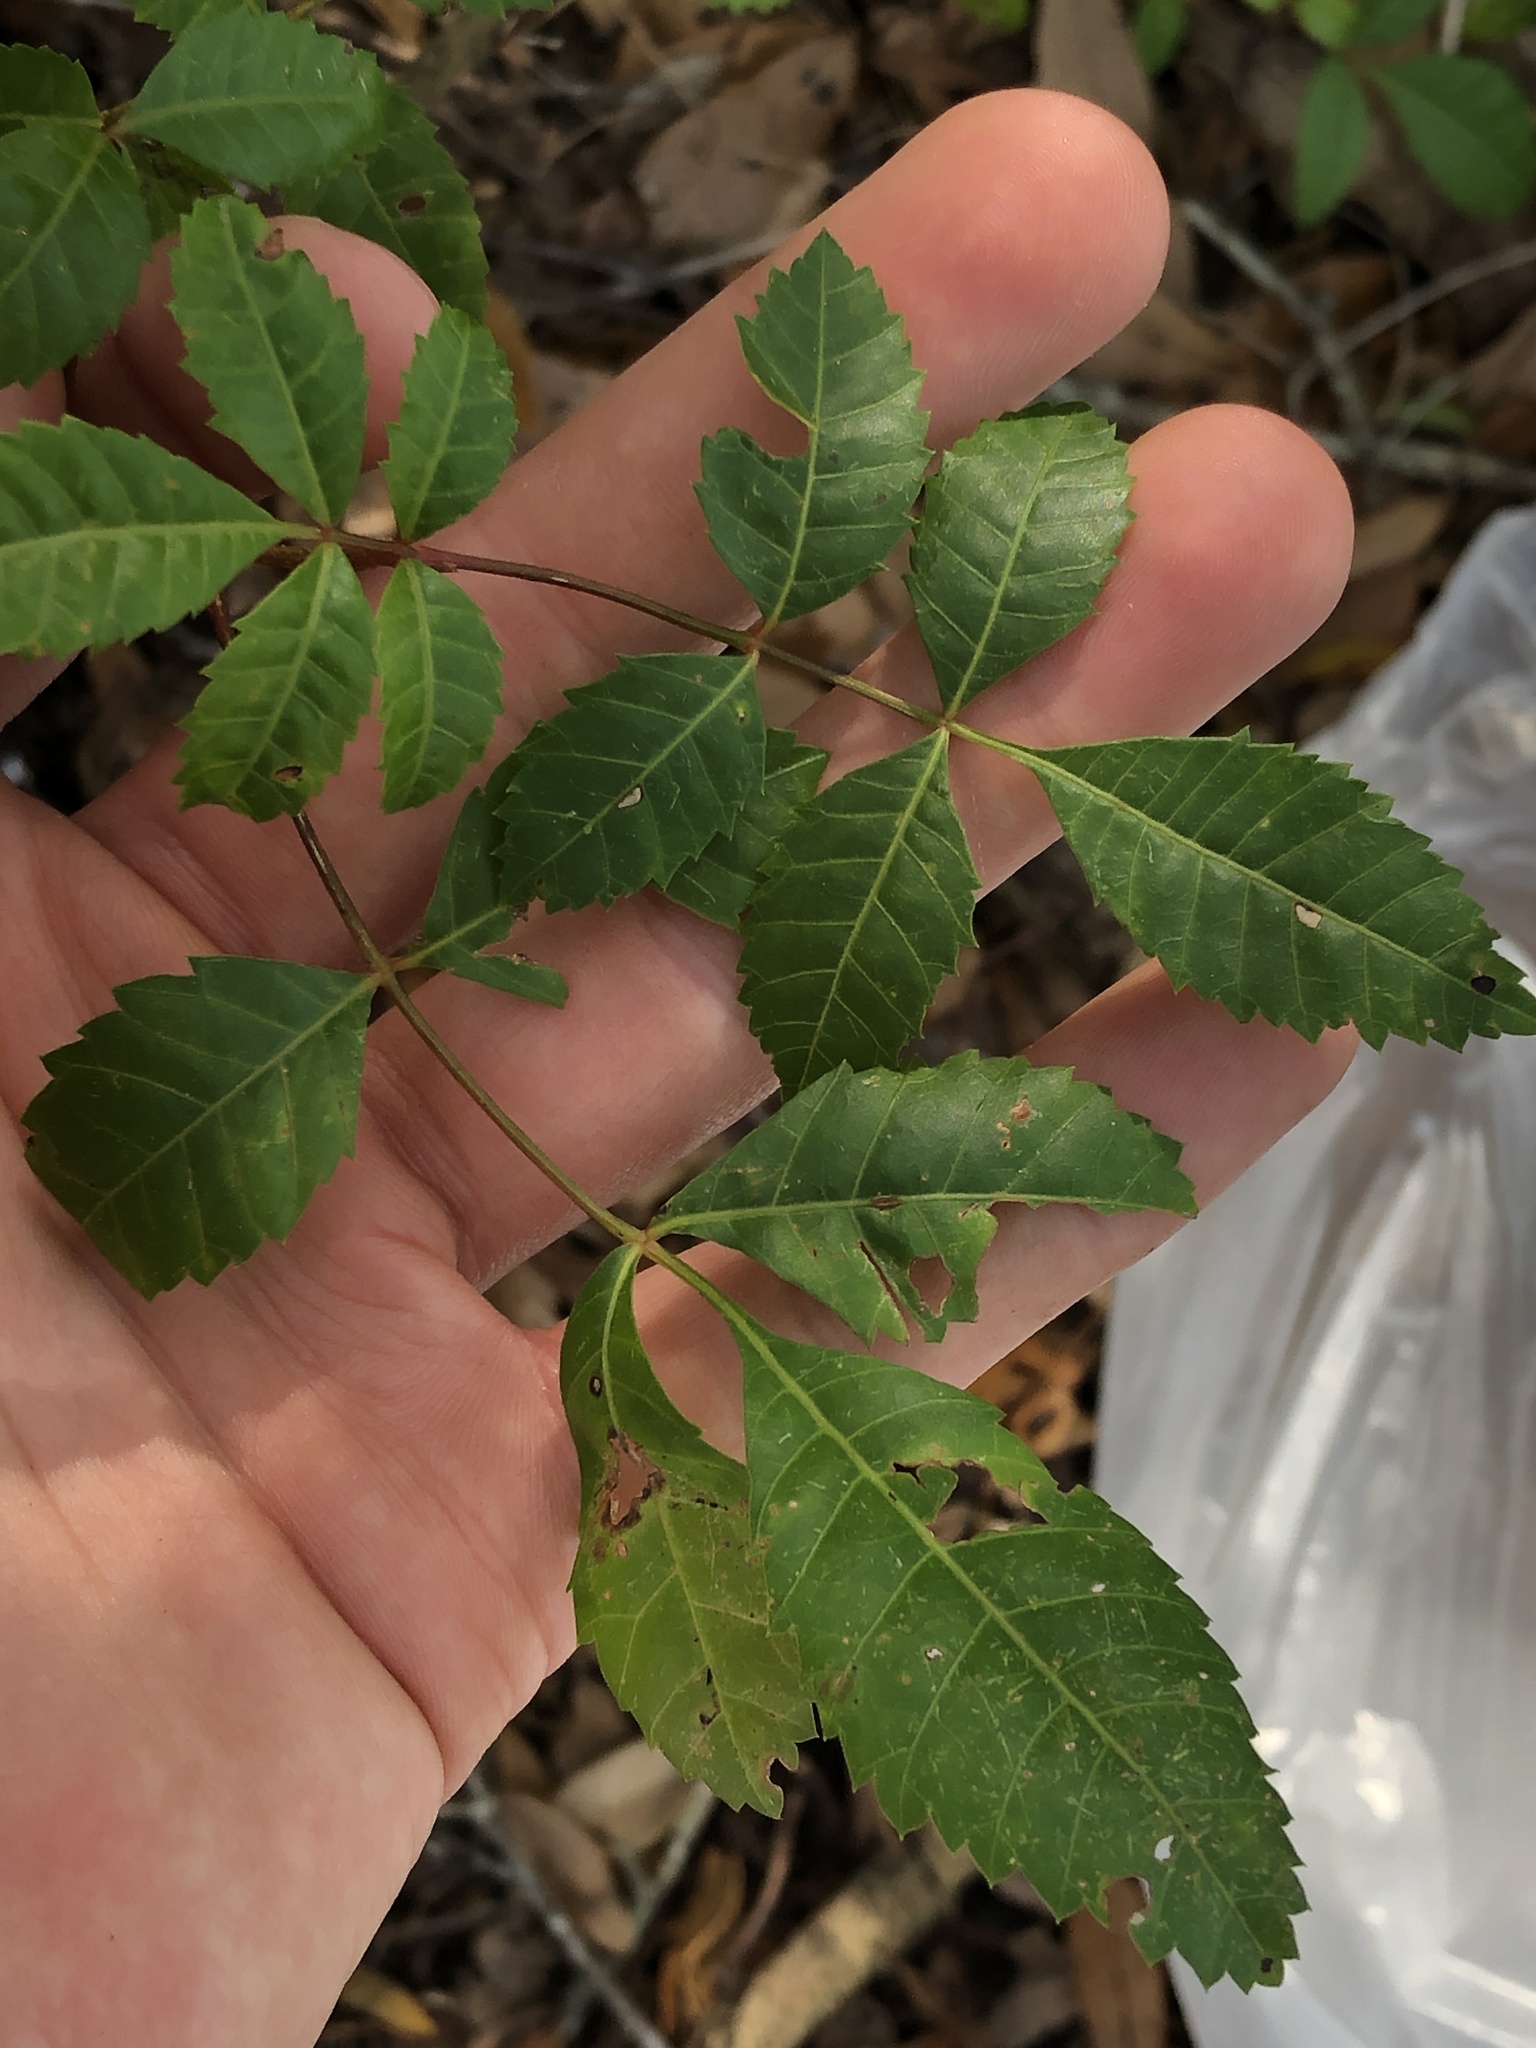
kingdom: Plantae
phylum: Tracheophyta
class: Magnoliopsida
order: Sapindales
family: Anacardiaceae
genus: Schinus
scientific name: Schinus terebinthifolia
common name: Brazilian peppertree
